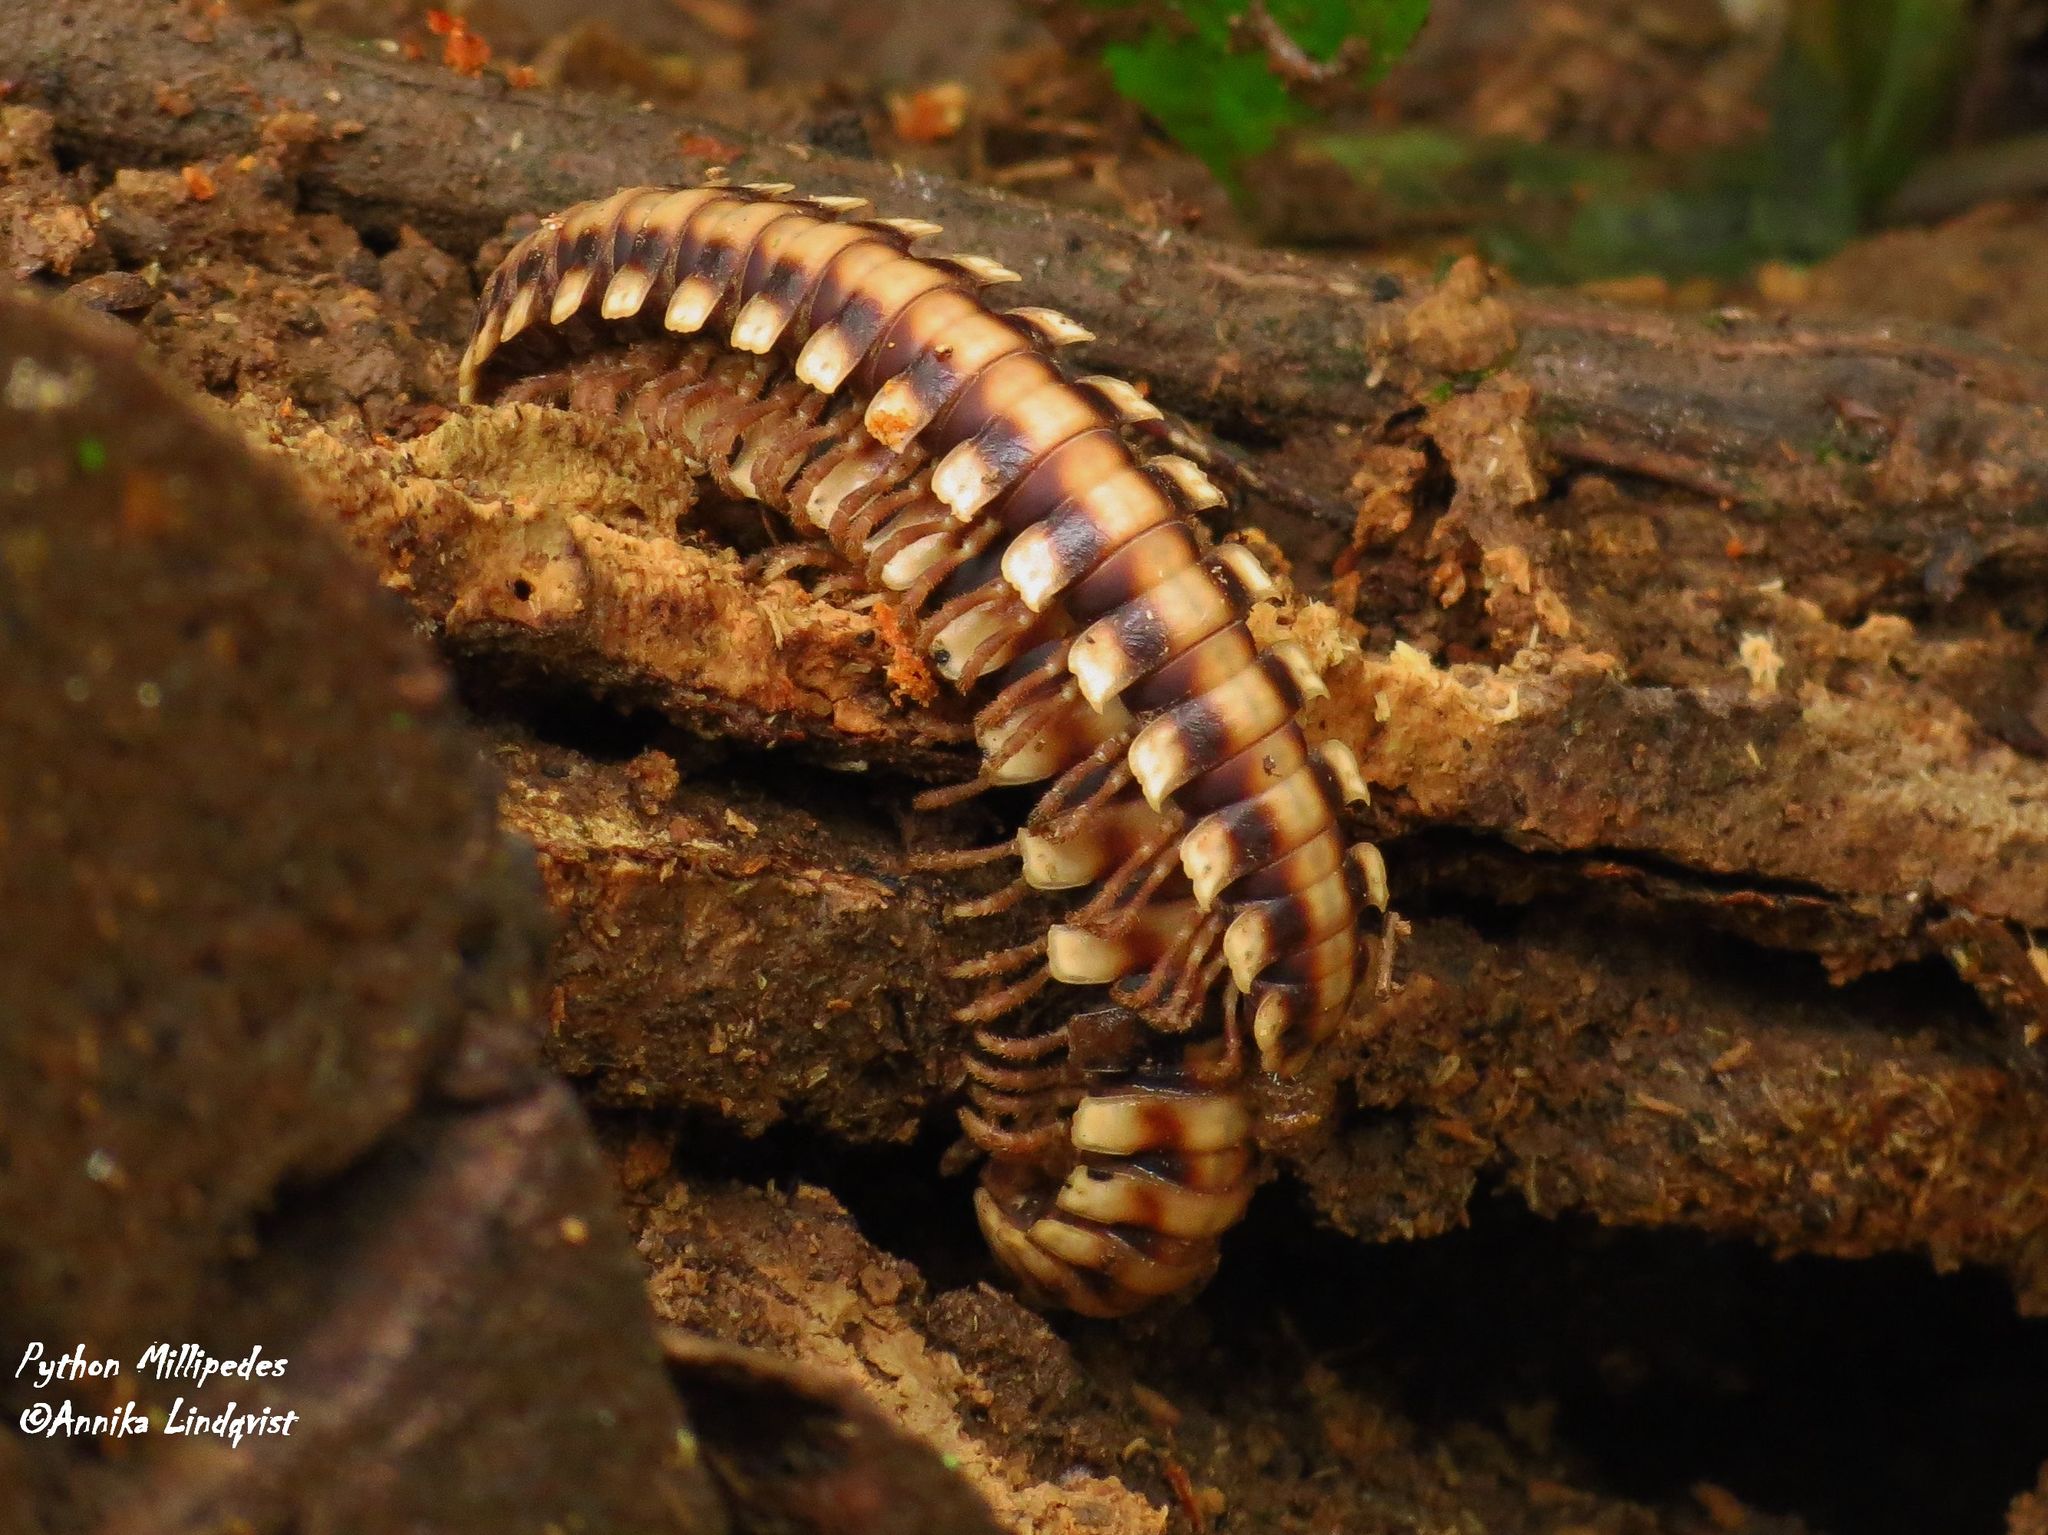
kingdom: Animalia
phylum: Arthropoda
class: Diplopoda
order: Polydesmida
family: Platyrhacidae
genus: Nyssodesmus
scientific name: Nyssodesmus python
